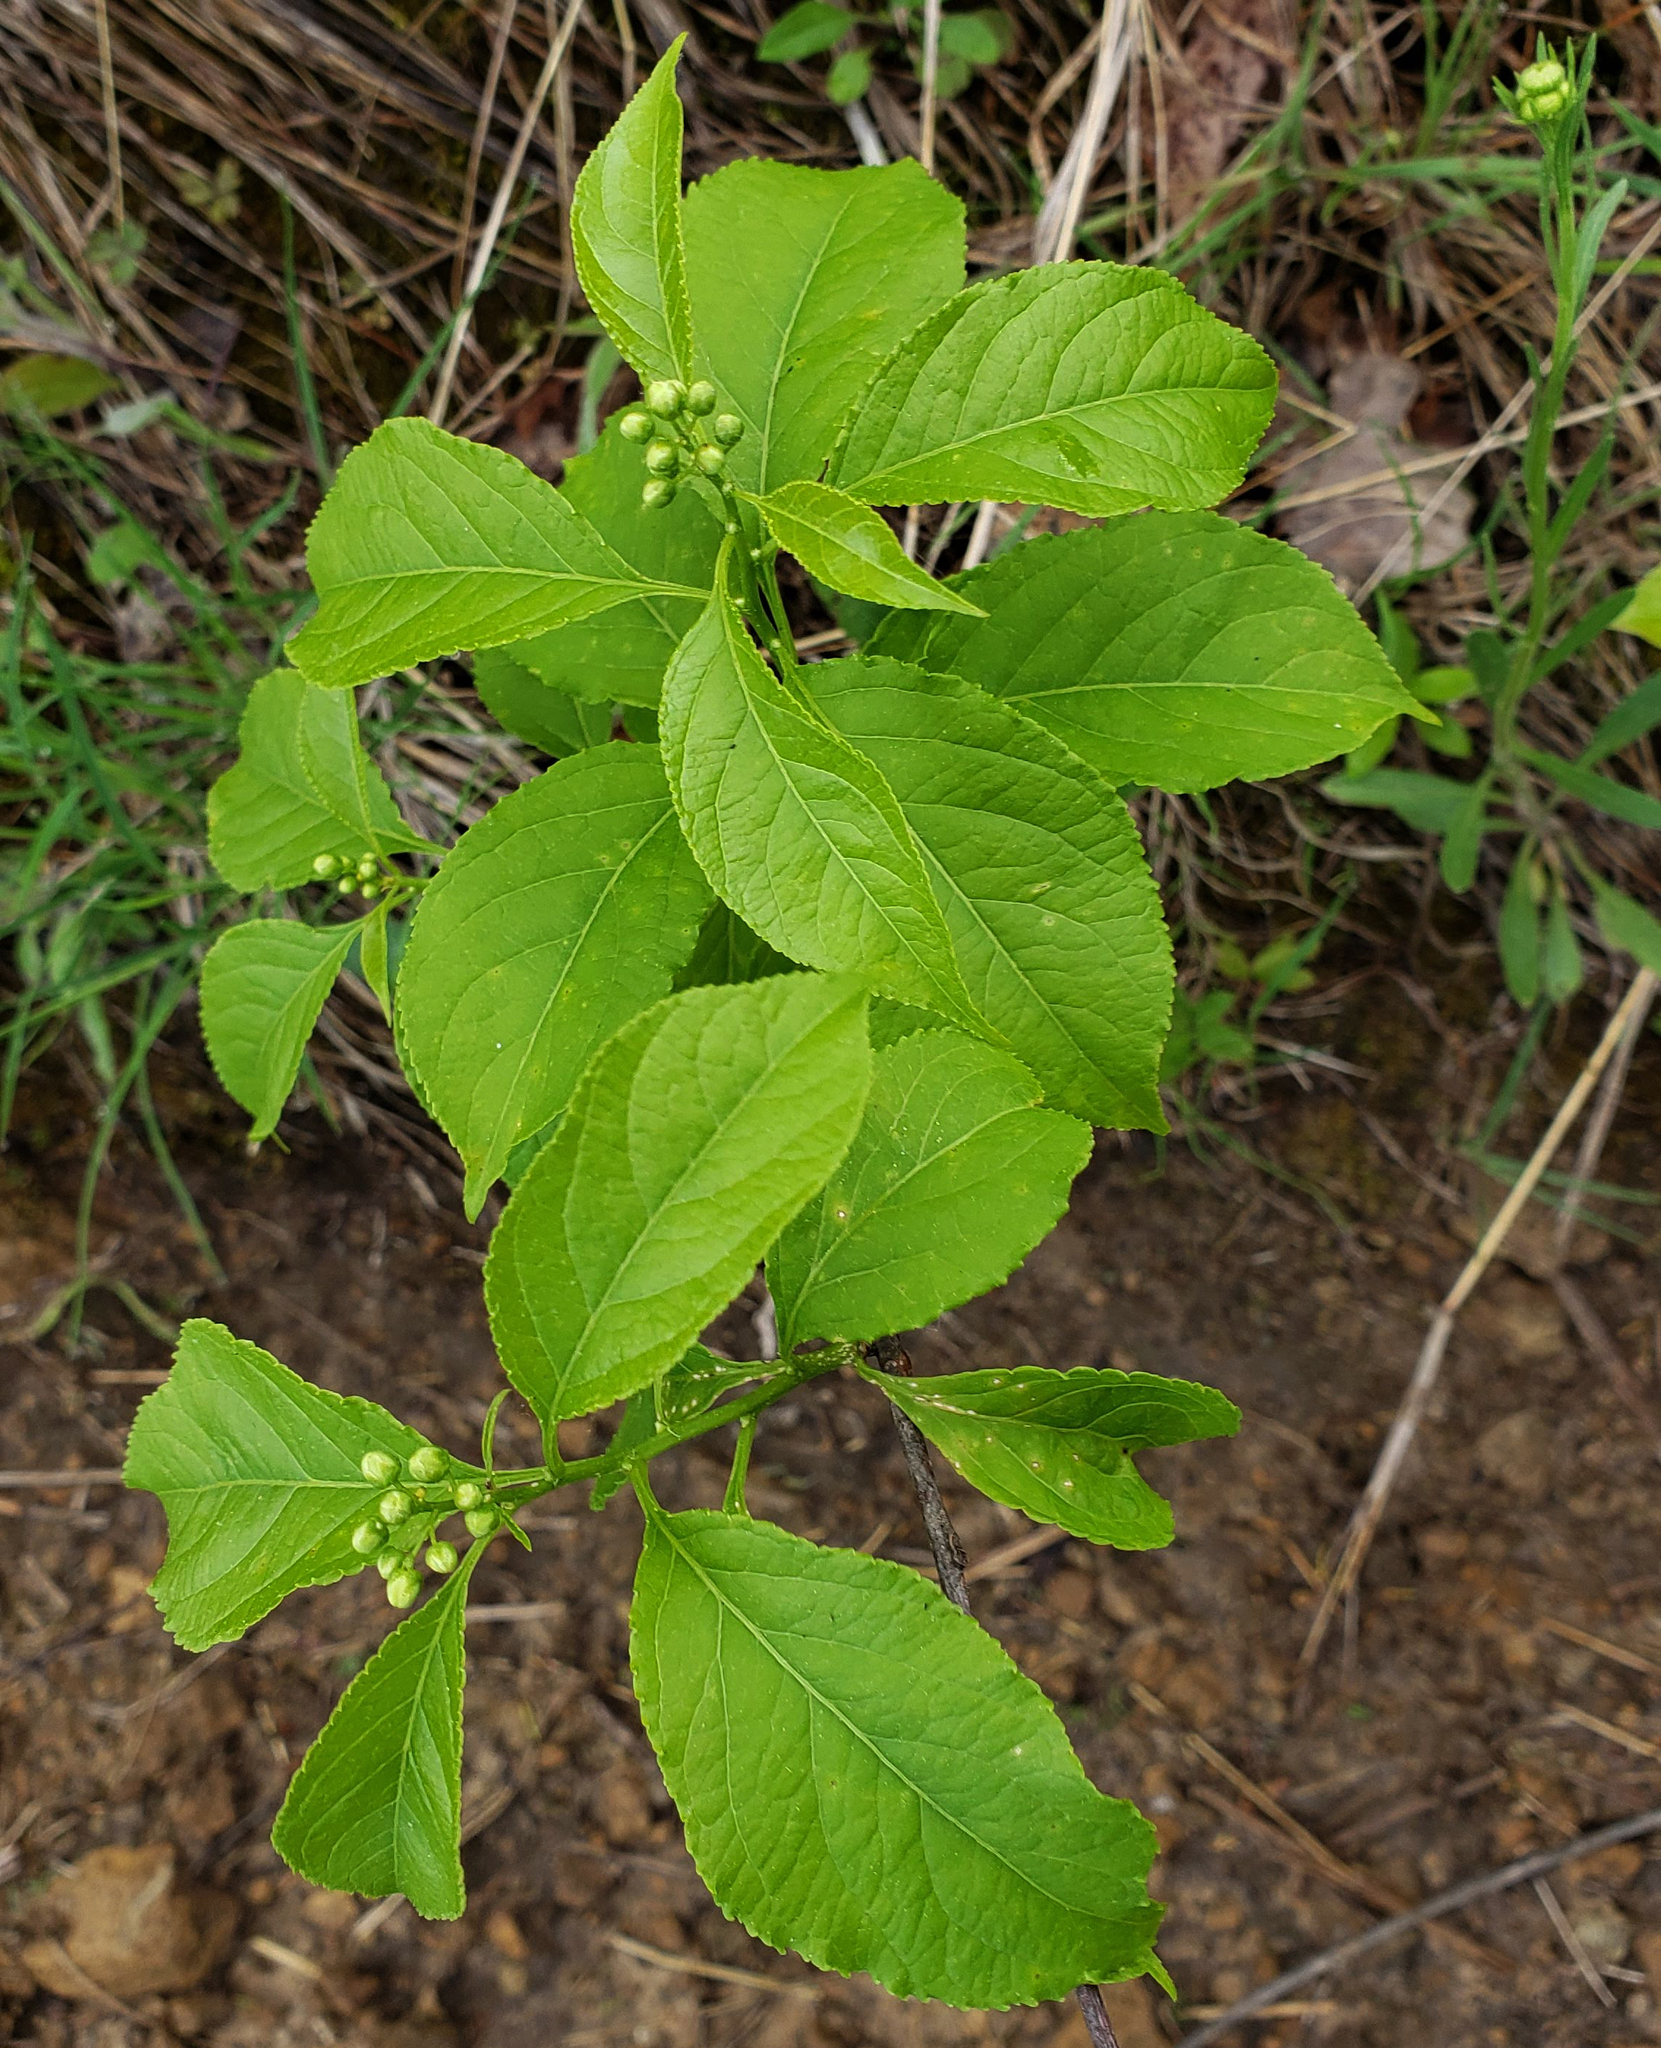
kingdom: Plantae
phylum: Tracheophyta
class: Magnoliopsida
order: Celastrales
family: Celastraceae
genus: Celastrus
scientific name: Celastrus scandens
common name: American bittersweet
